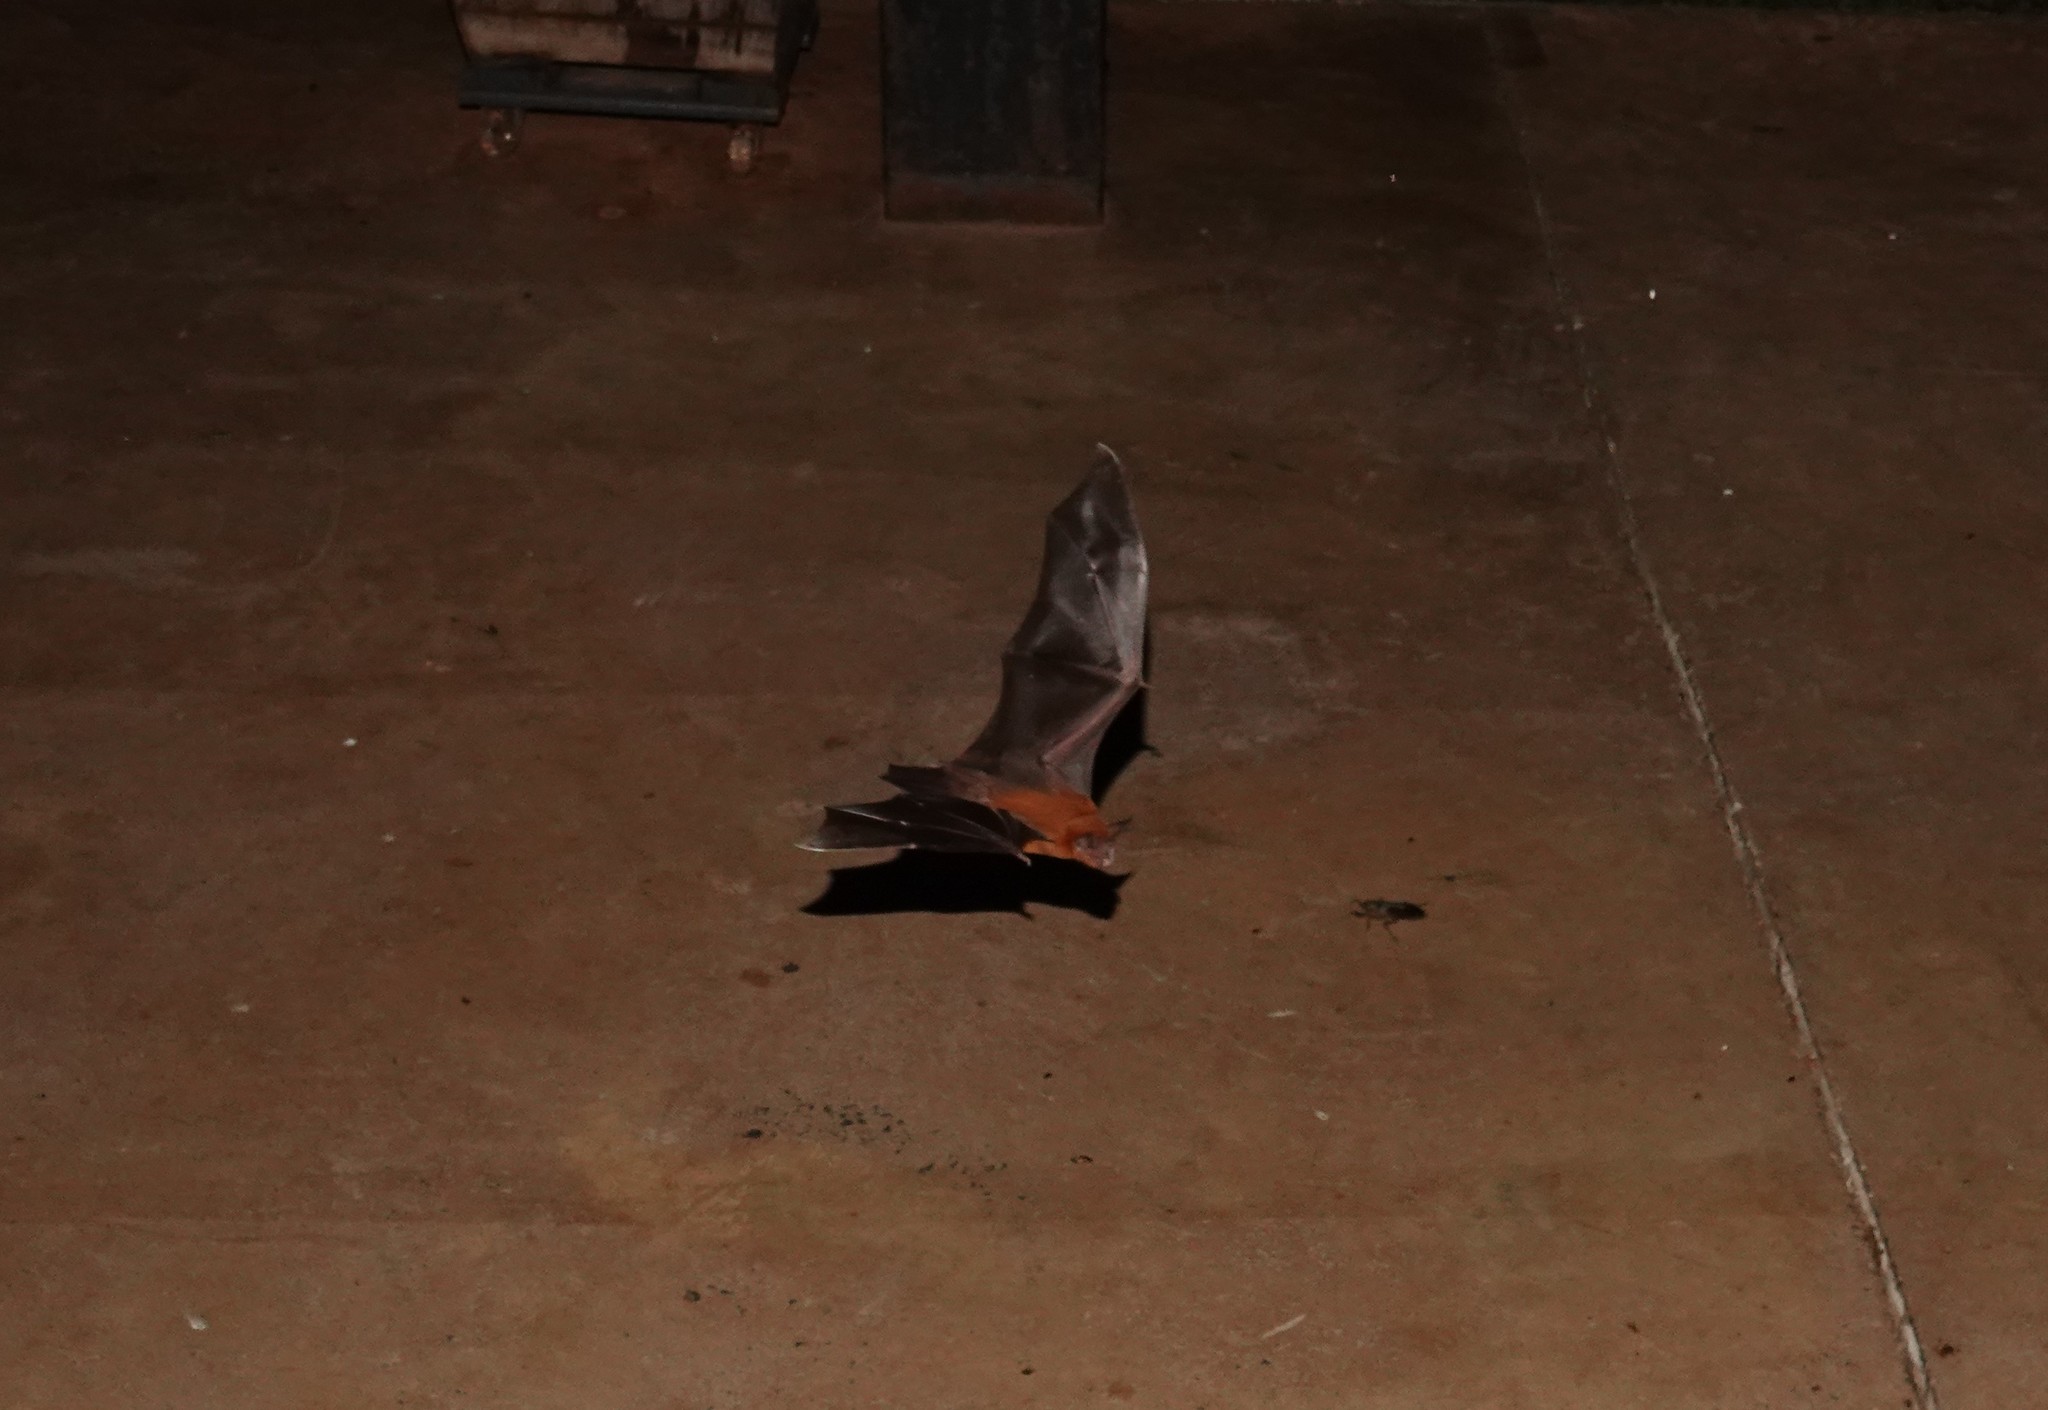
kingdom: Animalia
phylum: Chordata
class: Mammalia
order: Chiroptera
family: Noctilionidae
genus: Noctilio
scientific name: Noctilio
